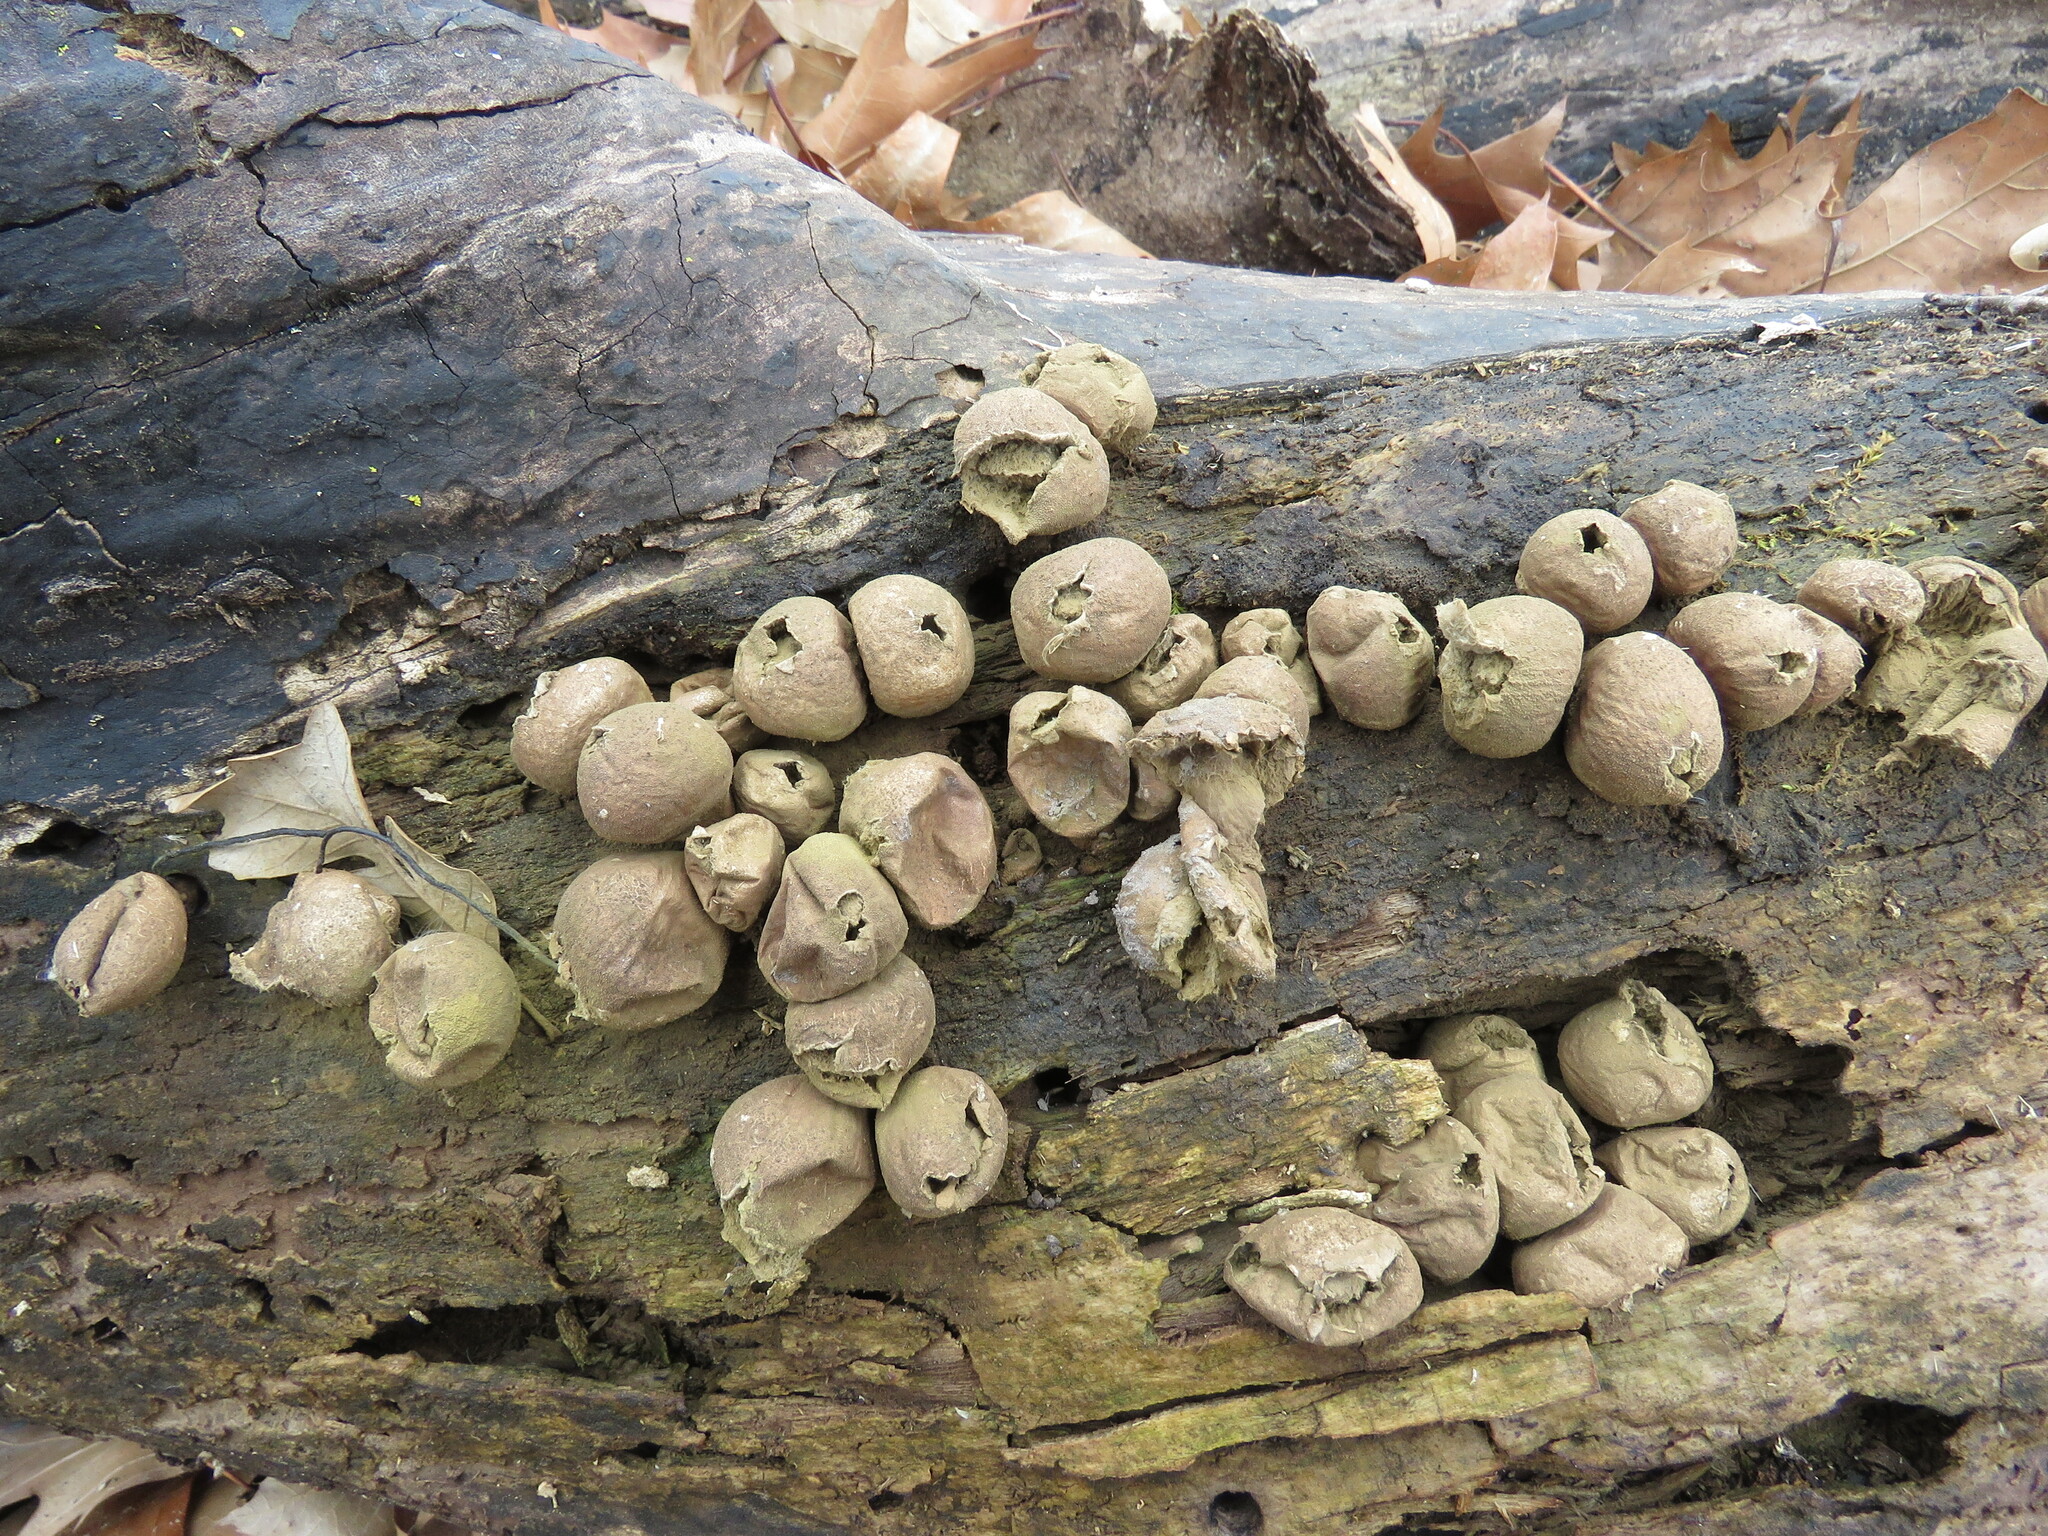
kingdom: Fungi
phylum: Basidiomycota
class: Agaricomycetes
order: Agaricales
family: Lycoperdaceae
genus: Apioperdon
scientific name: Apioperdon pyriforme
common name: Pear-shaped puffball
